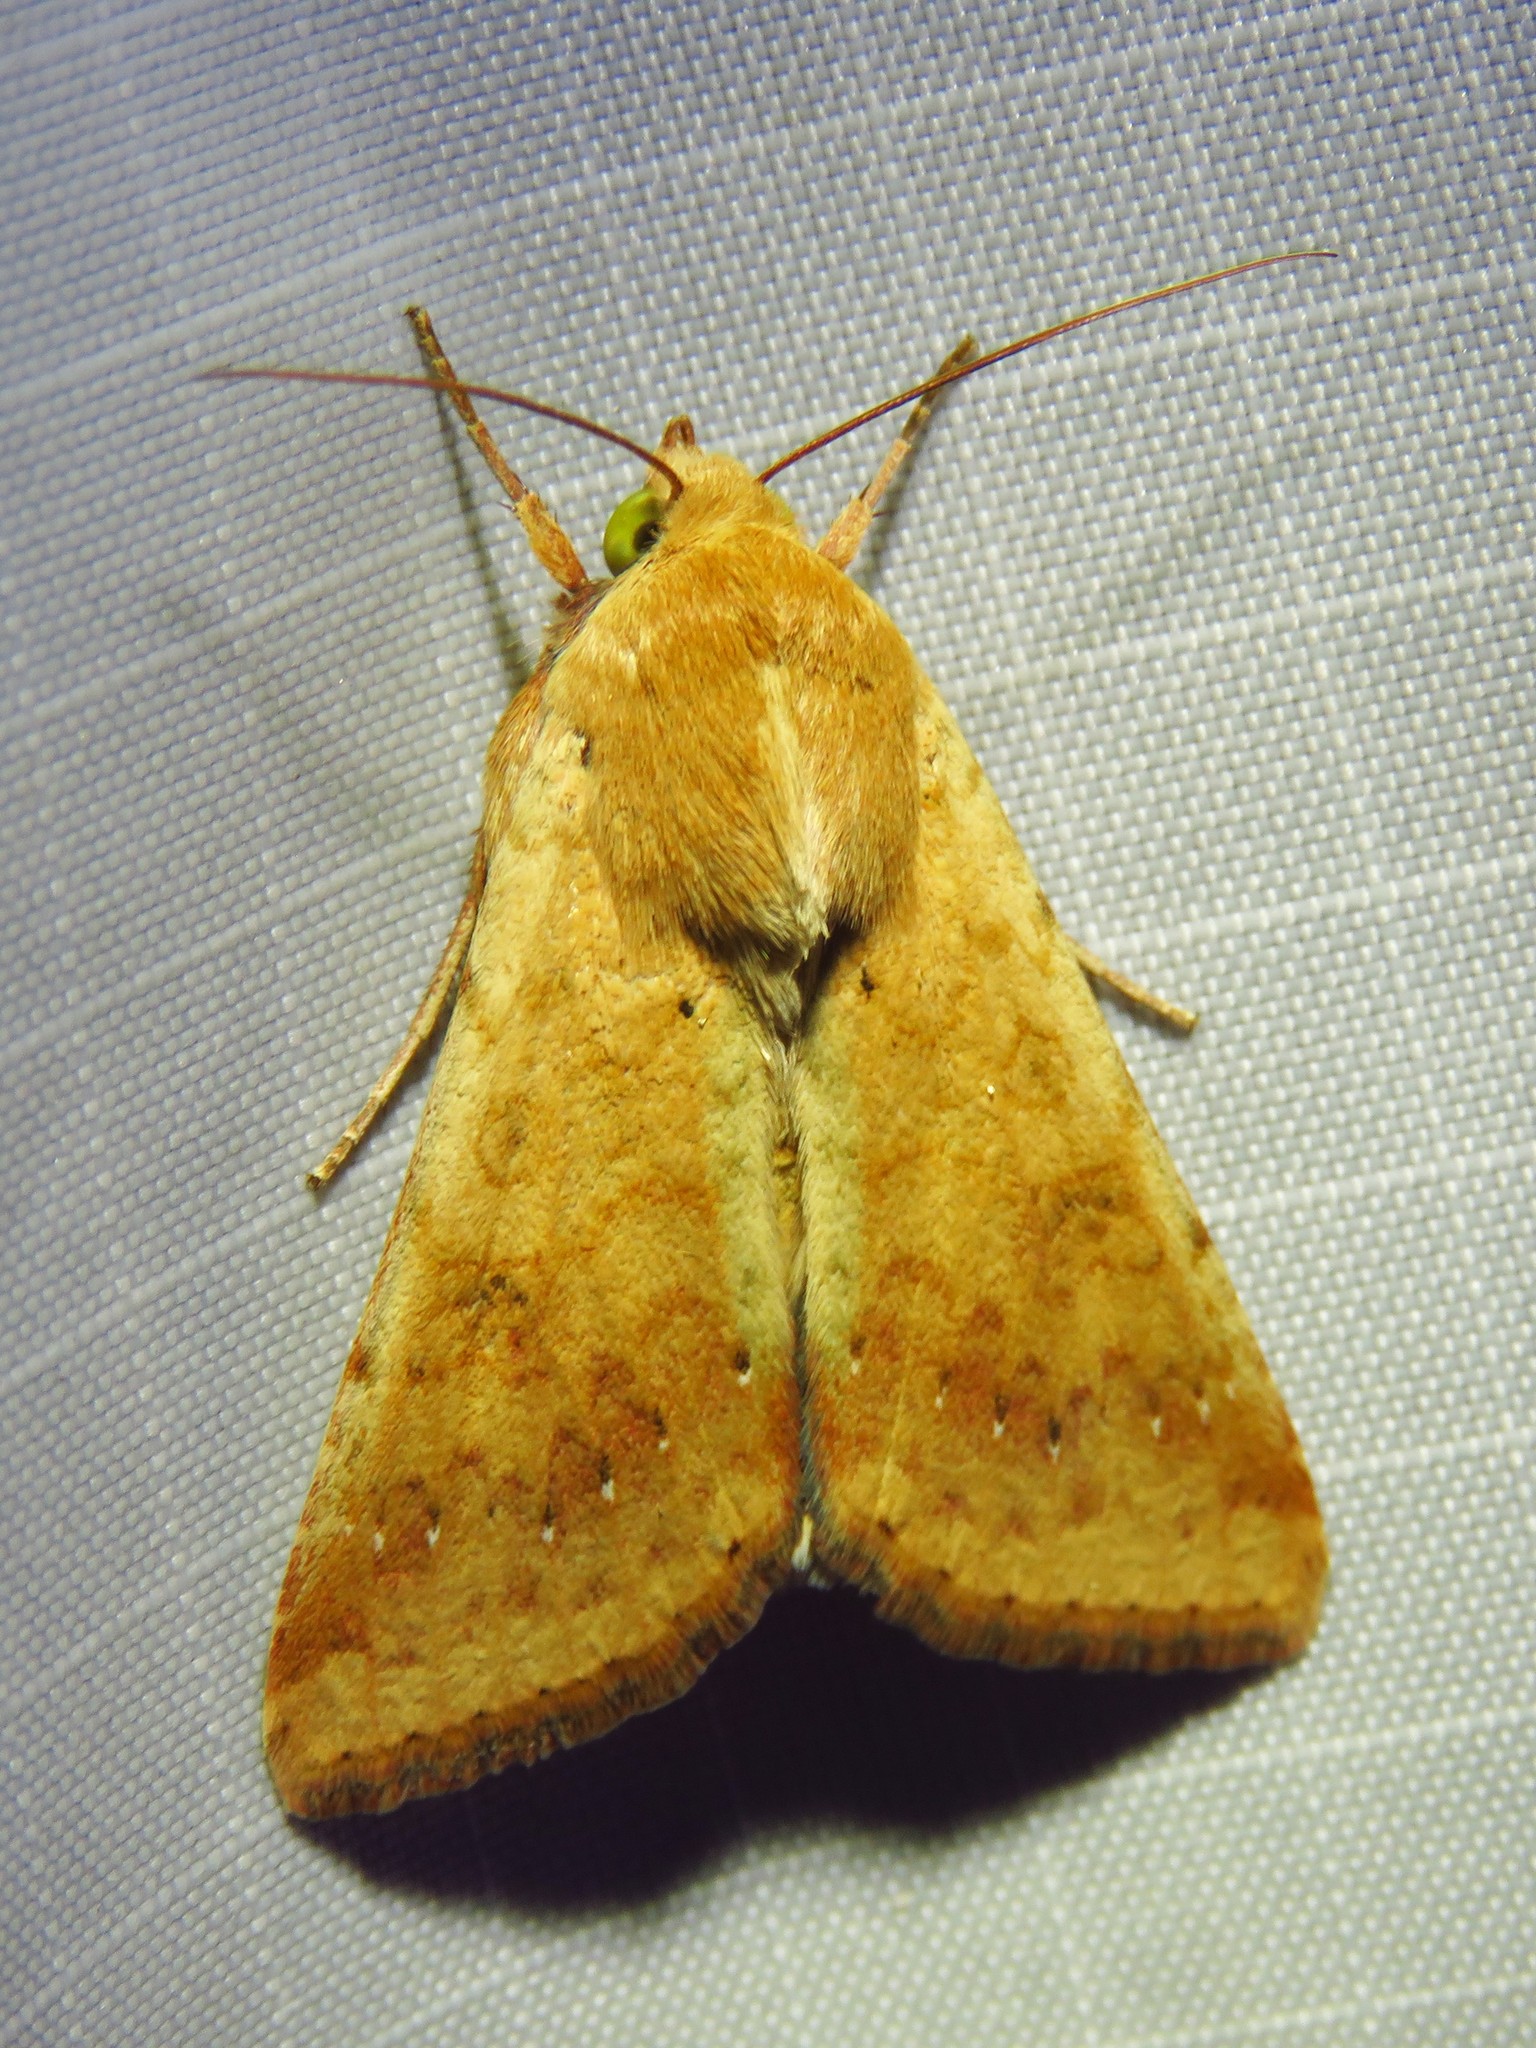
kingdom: Animalia
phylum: Arthropoda
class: Insecta
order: Lepidoptera
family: Noctuidae
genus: Helicoverpa
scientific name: Helicoverpa zea
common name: Bollworm
